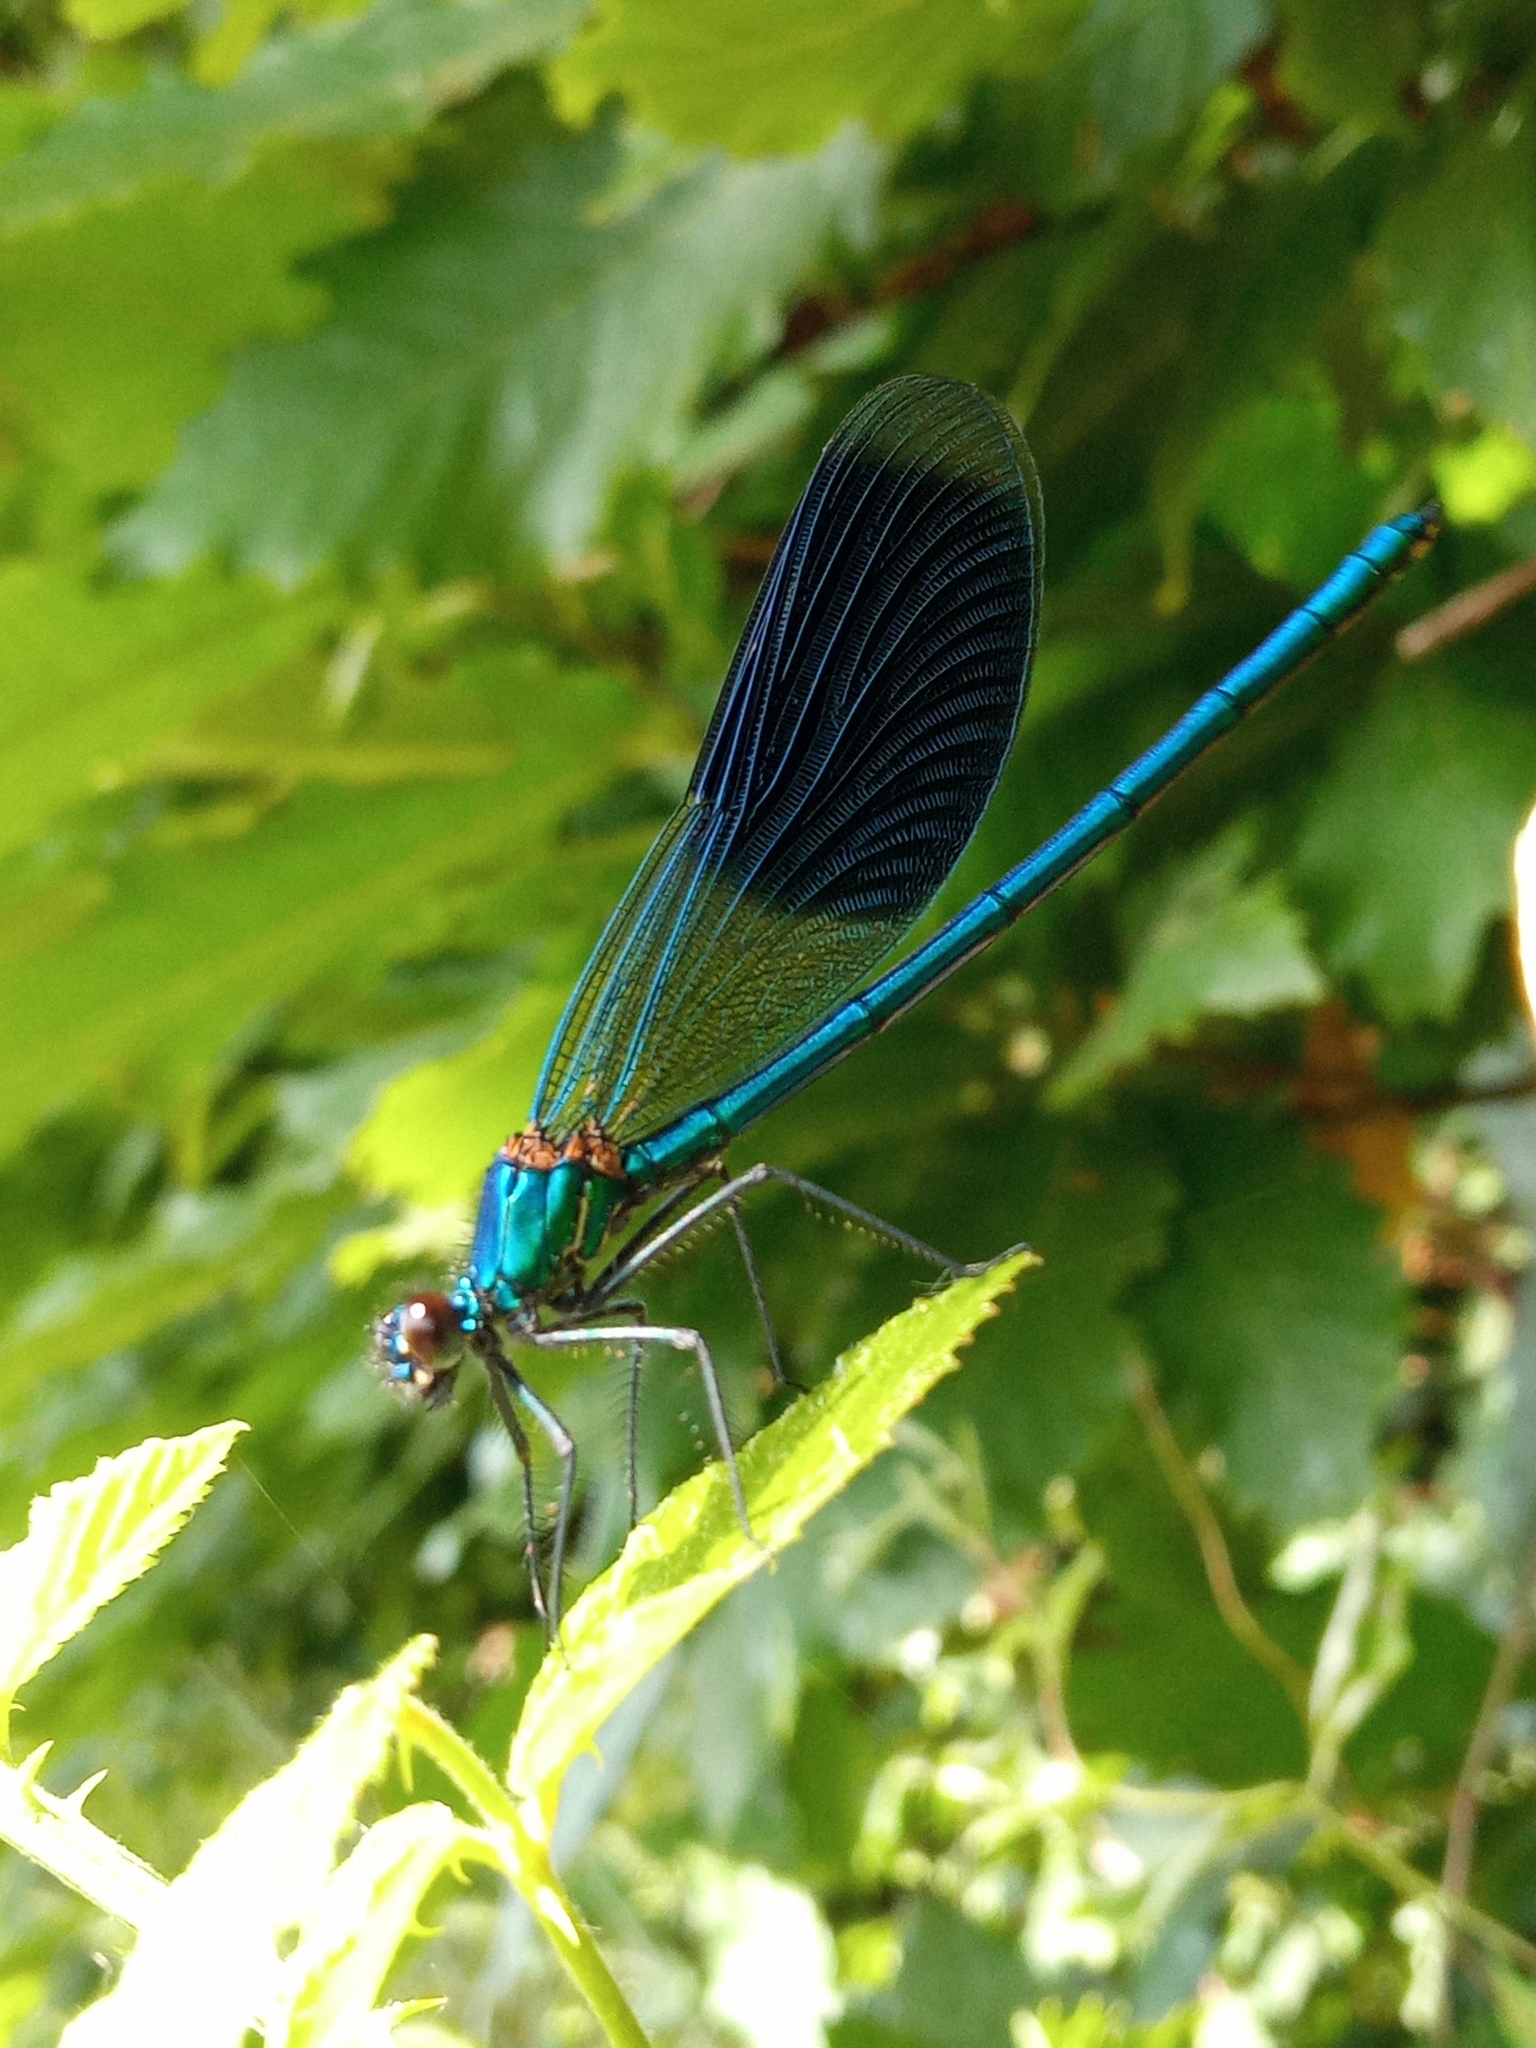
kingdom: Animalia
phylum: Arthropoda
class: Insecta
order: Odonata
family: Calopterygidae
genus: Calopteryx
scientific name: Calopteryx splendens
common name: Banded demoiselle
